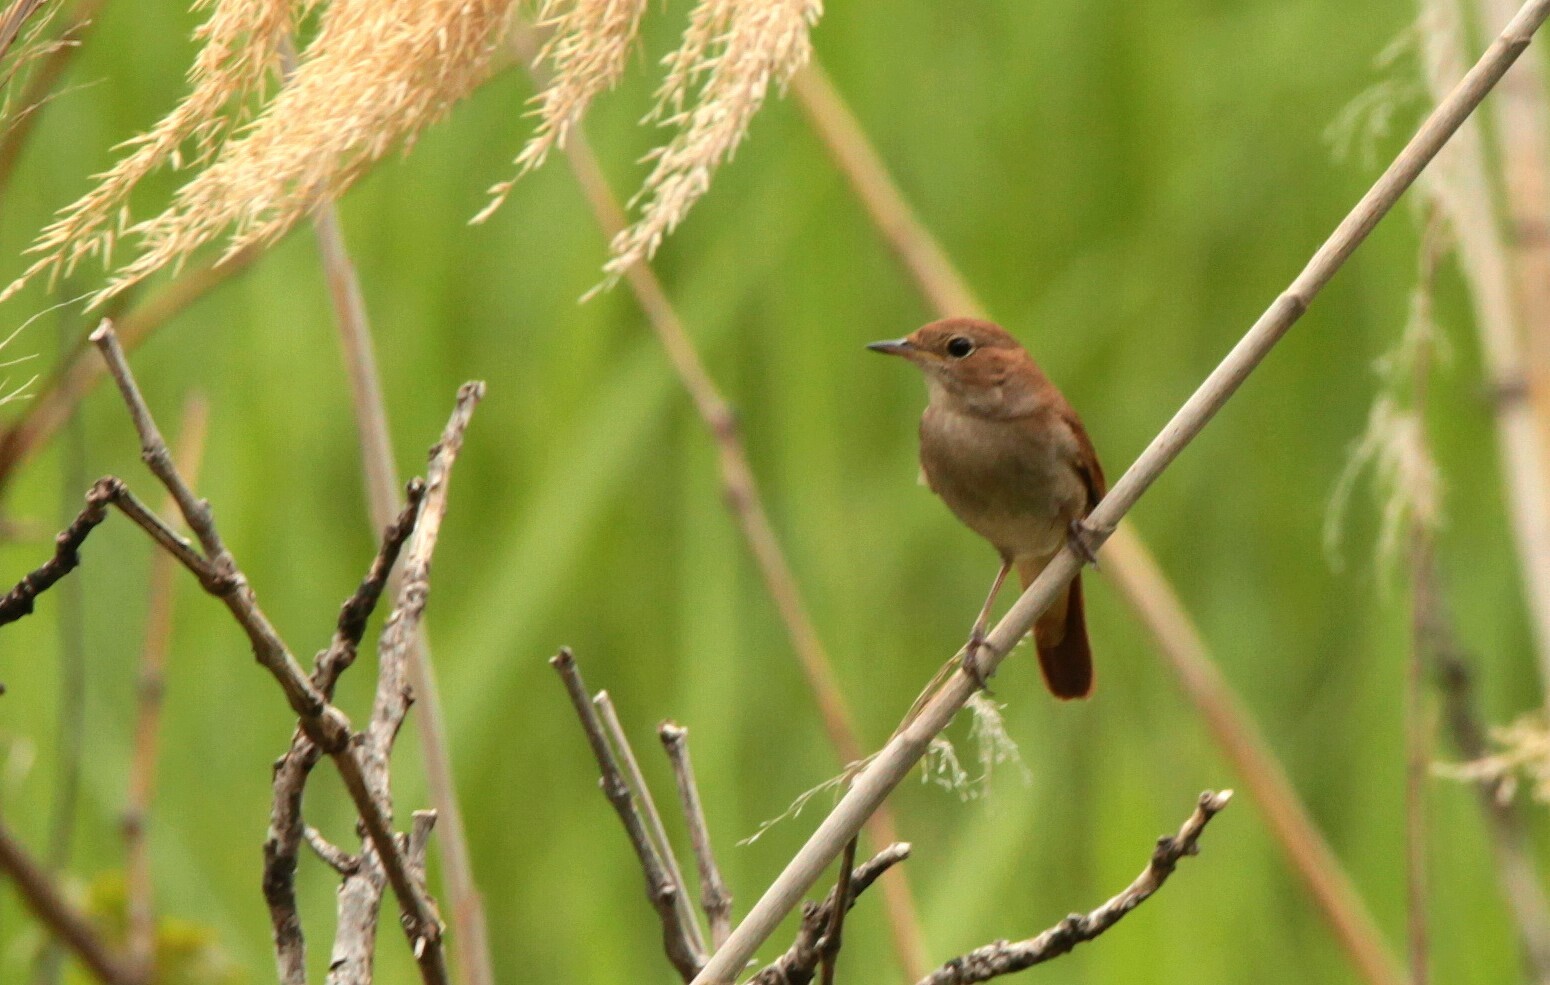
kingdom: Animalia
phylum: Chordata
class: Aves
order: Passeriformes
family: Muscicapidae
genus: Luscinia
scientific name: Luscinia megarhynchos
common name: Common nightingale
